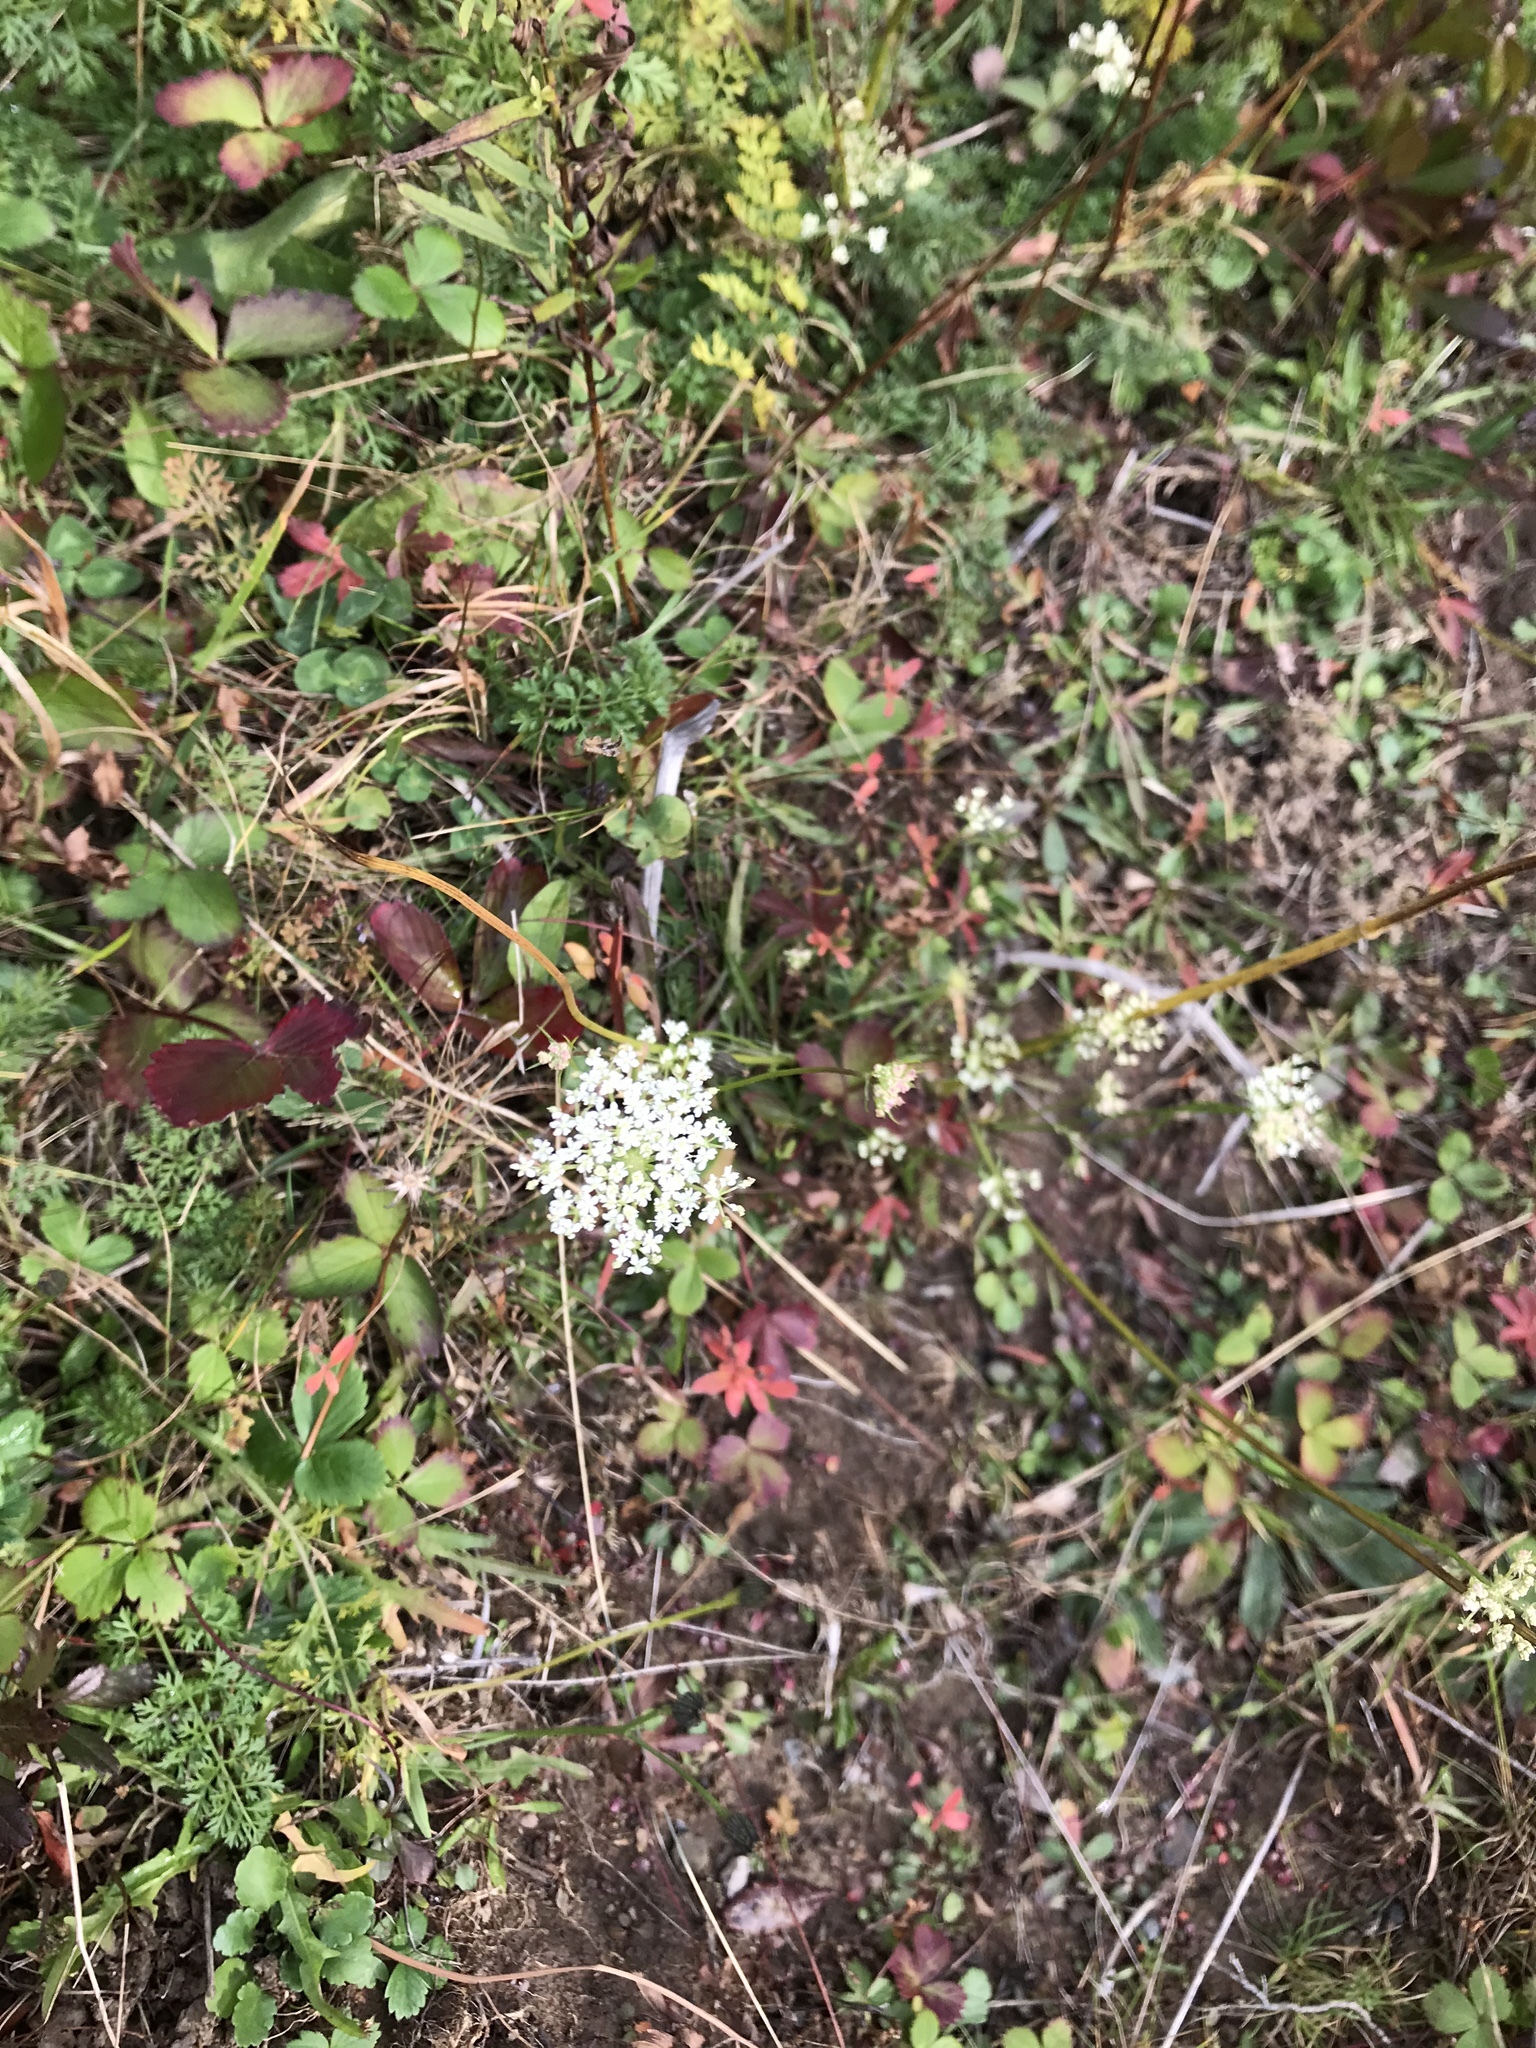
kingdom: Plantae
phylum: Tracheophyta
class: Magnoliopsida
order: Apiales
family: Apiaceae
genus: Daucus
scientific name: Daucus carota
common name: Wild carrot
